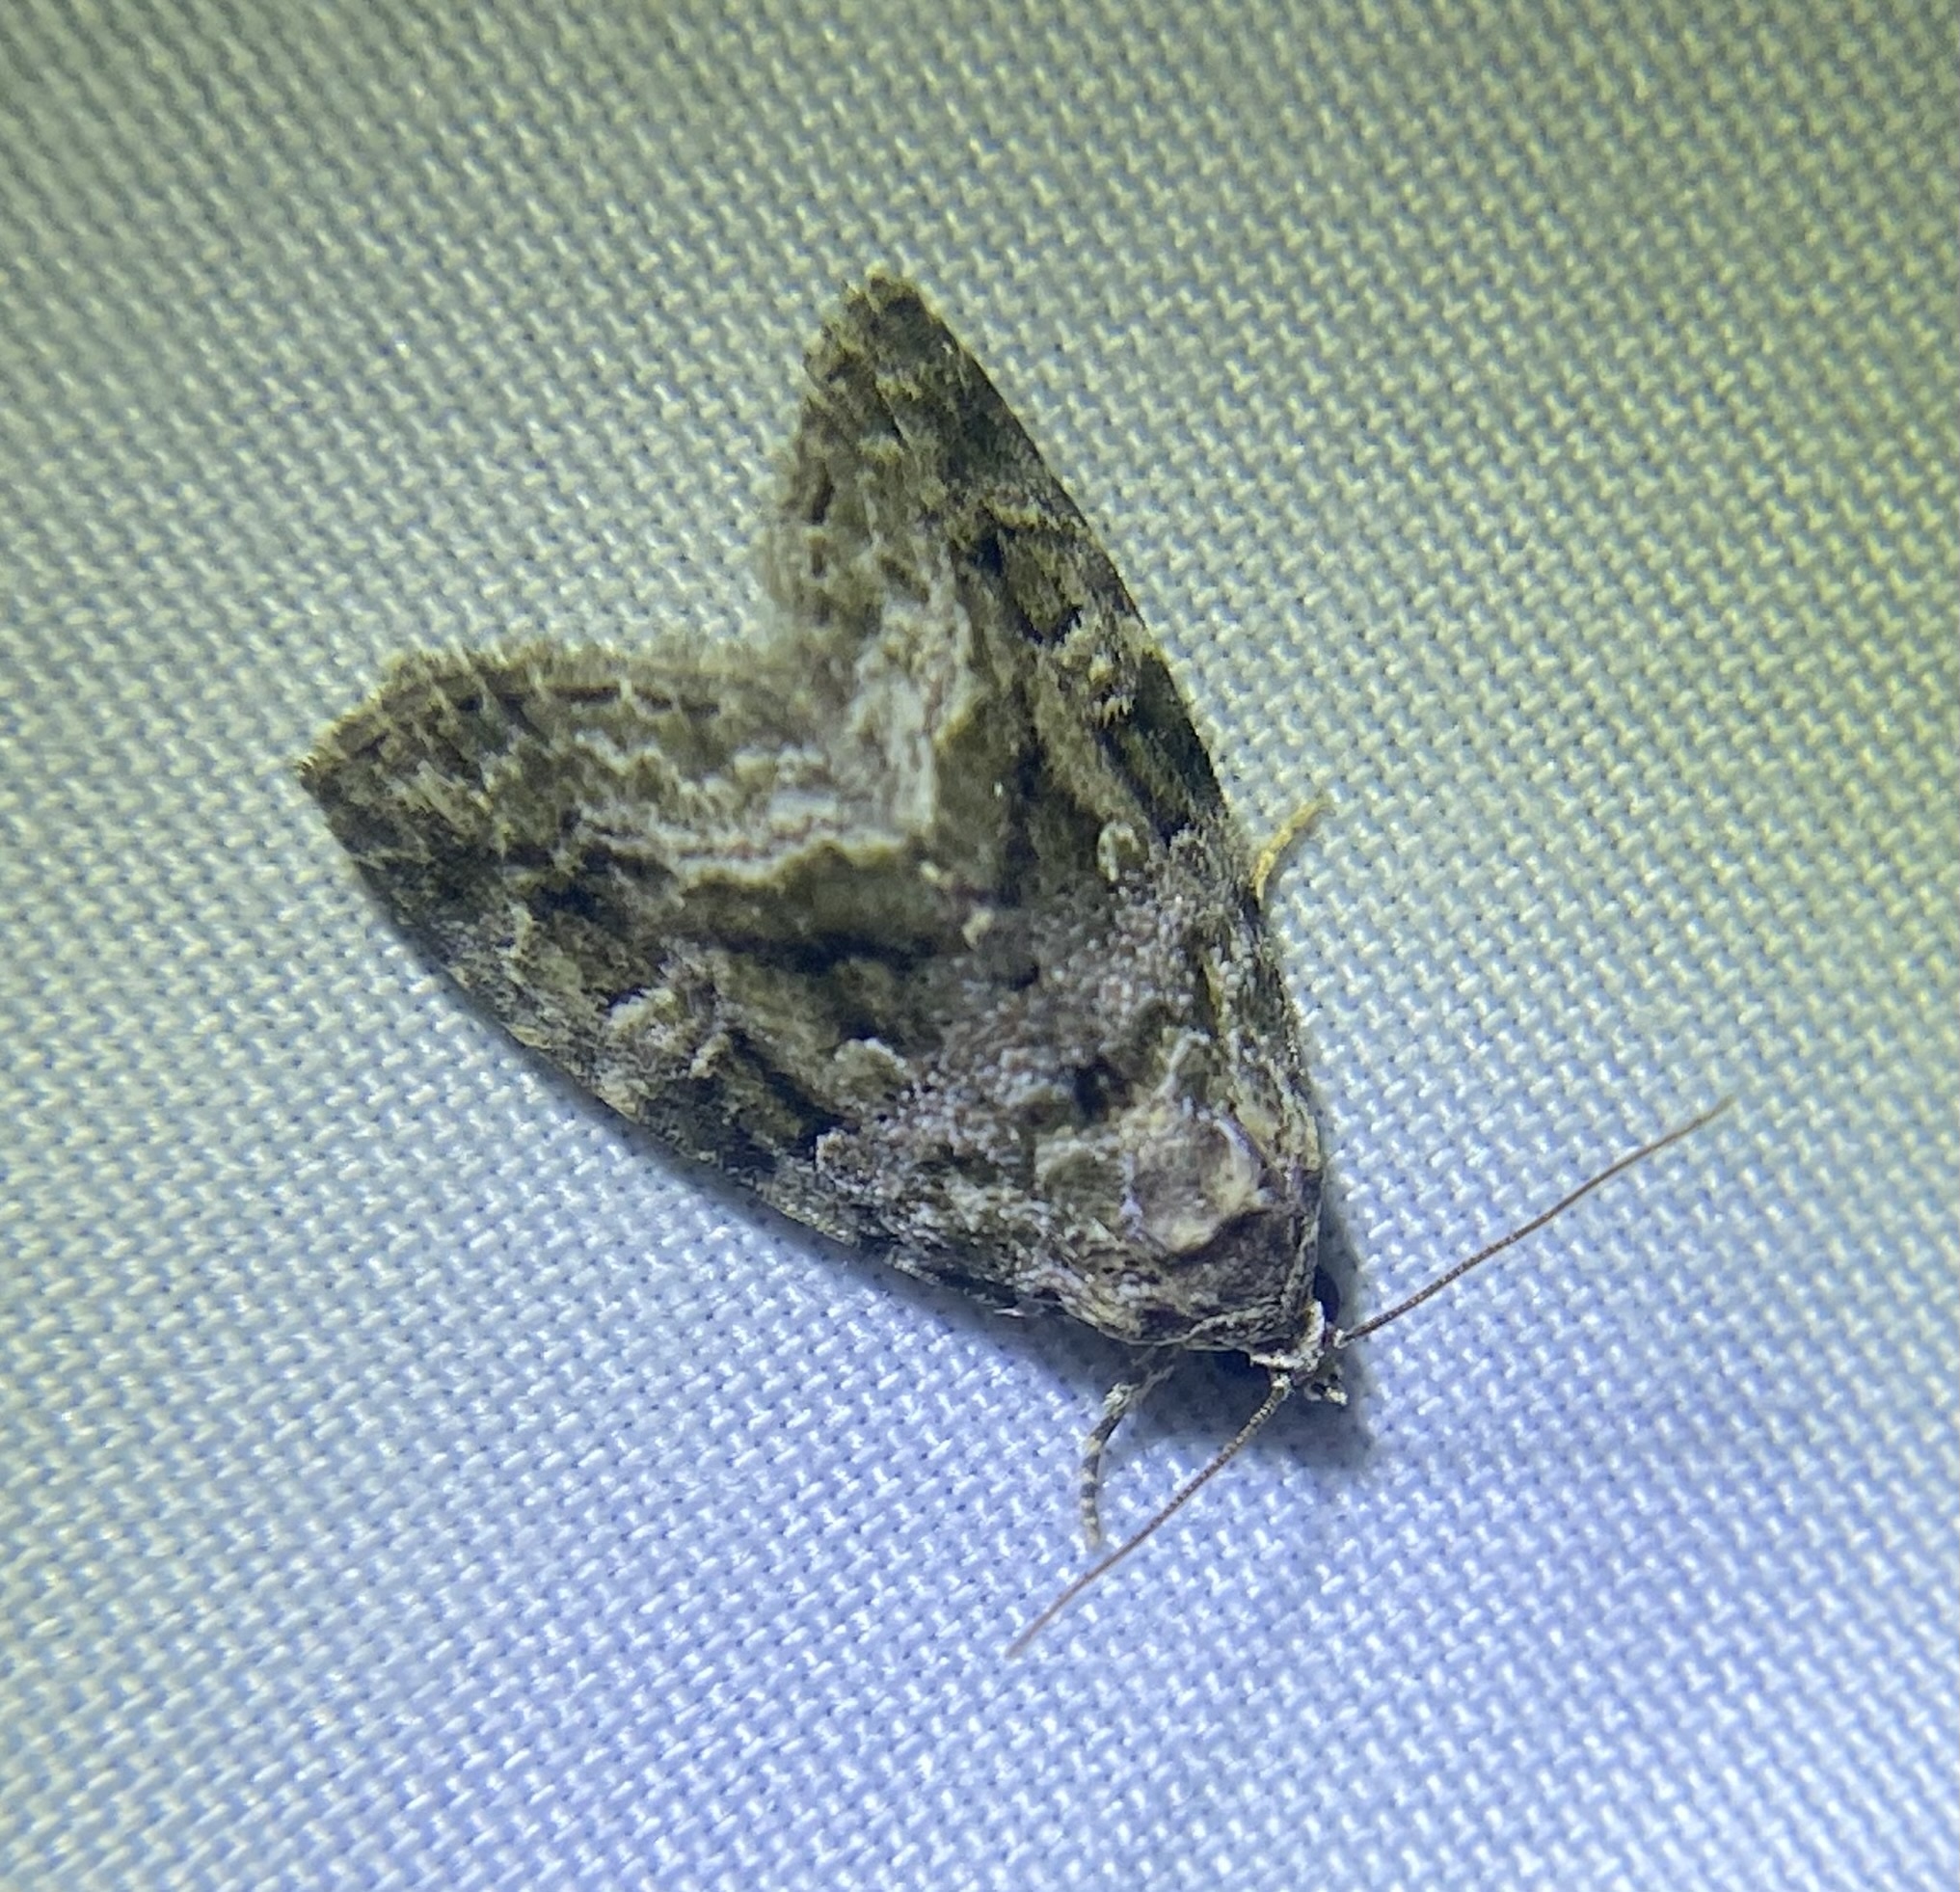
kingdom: Animalia
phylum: Arthropoda
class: Insecta
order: Lepidoptera
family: Noctuidae
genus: Protodeltote
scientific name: Protodeltote muscosula
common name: Large mossy glyph
